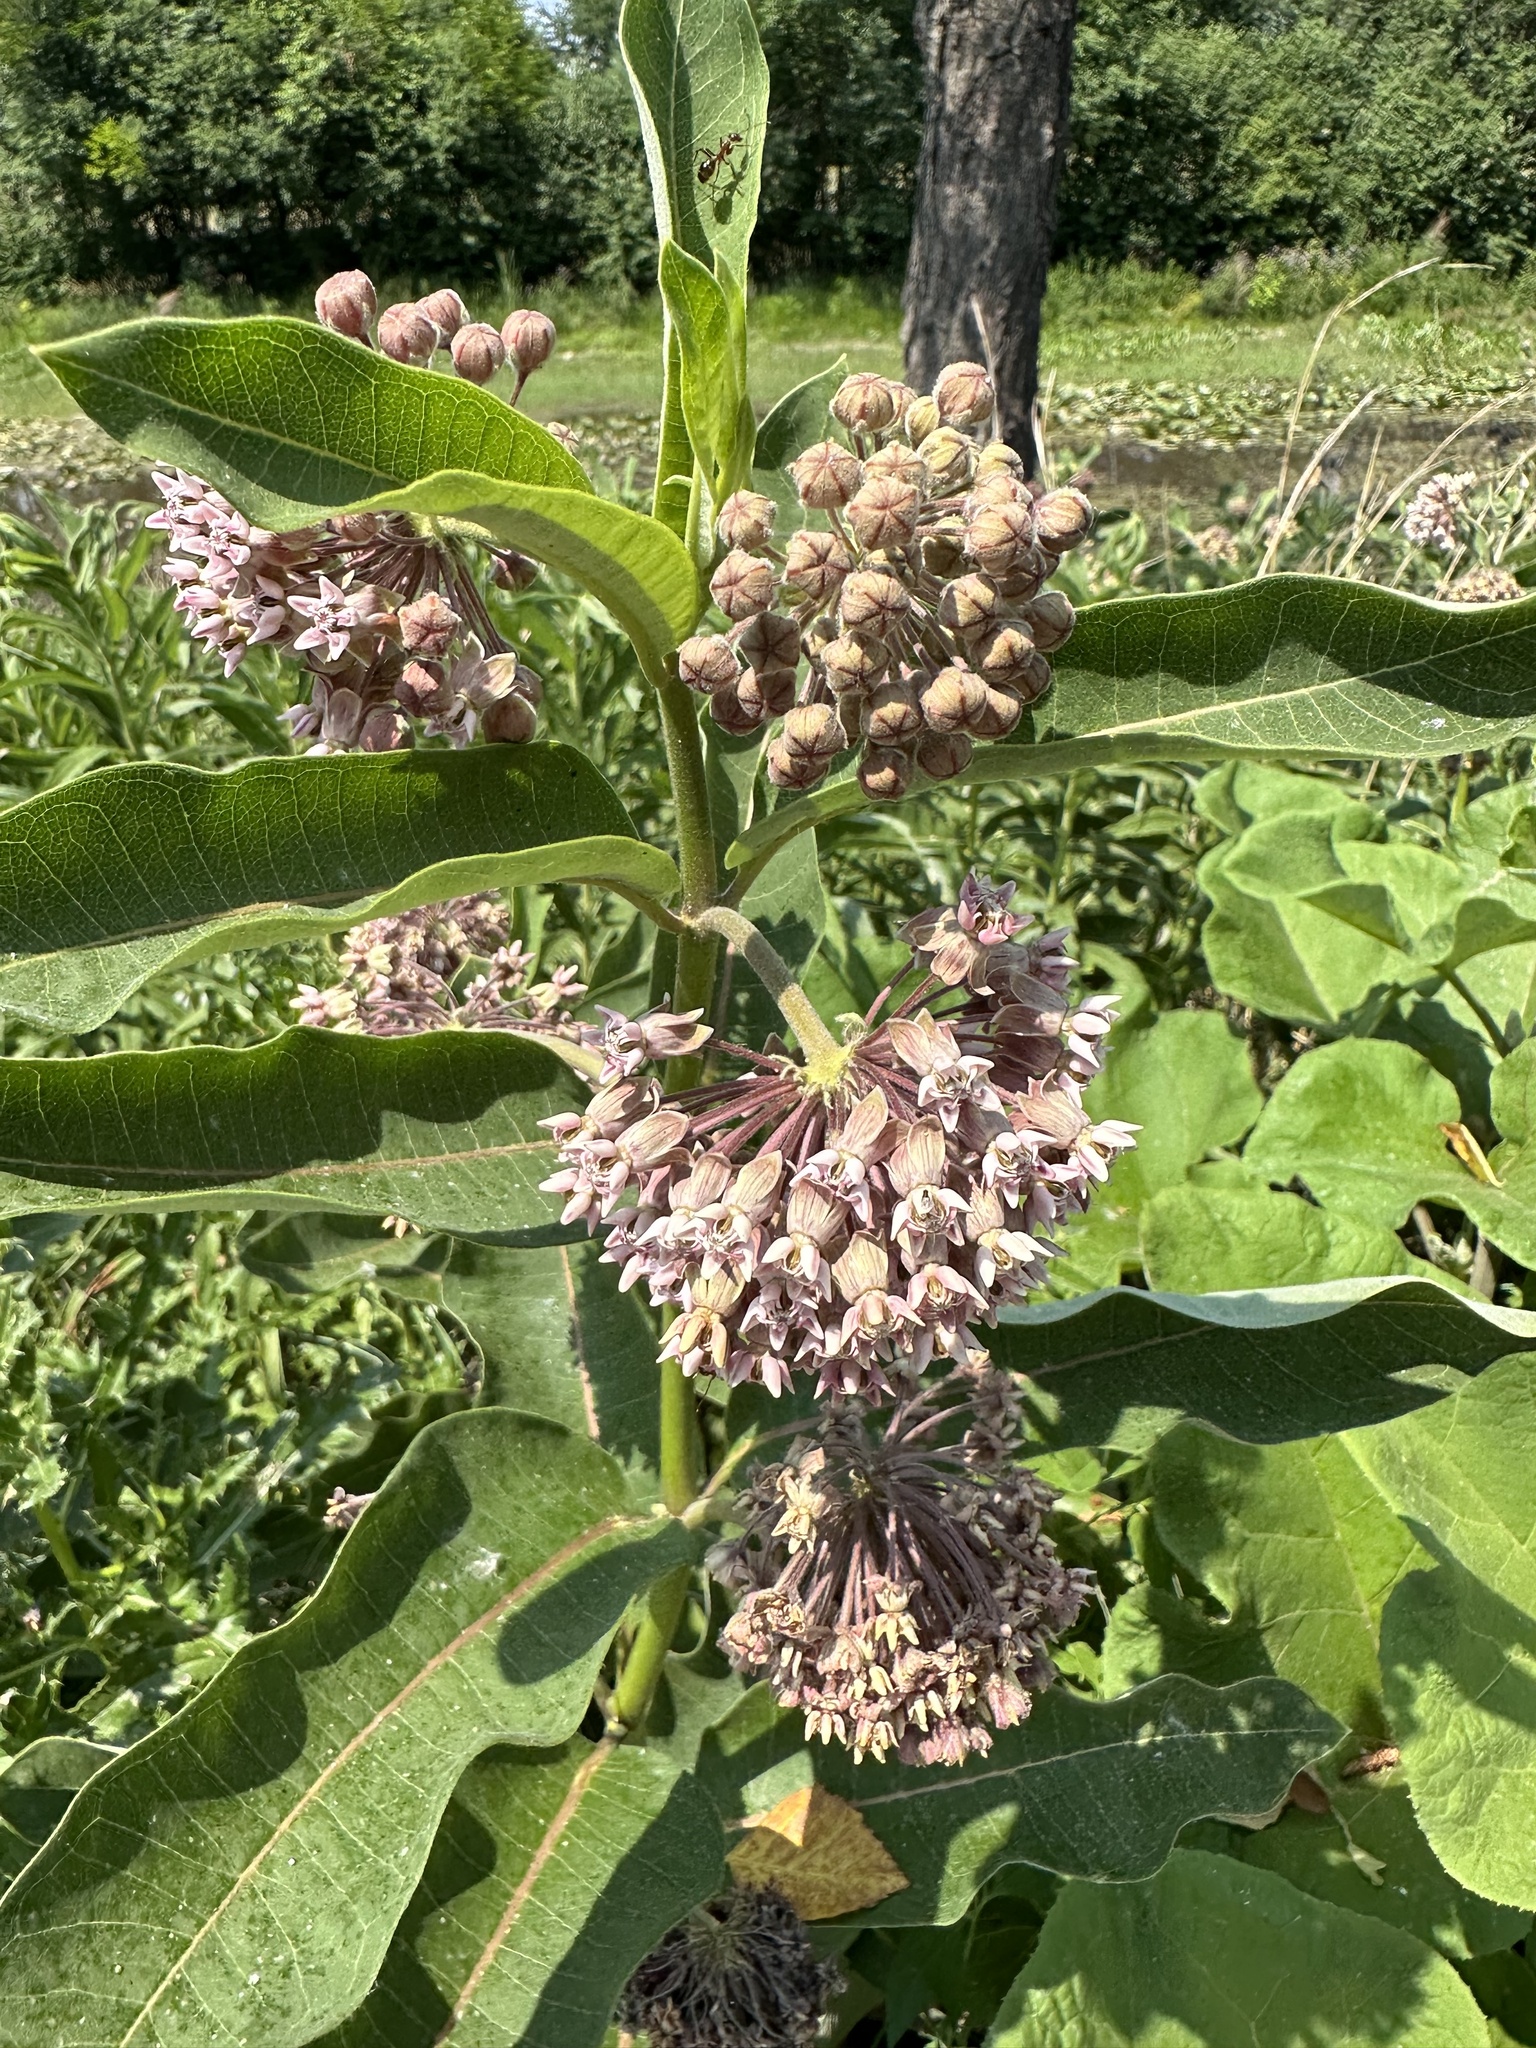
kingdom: Plantae
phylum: Tracheophyta
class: Magnoliopsida
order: Gentianales
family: Apocynaceae
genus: Asclepias
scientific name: Asclepias syriaca
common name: Common milkweed
